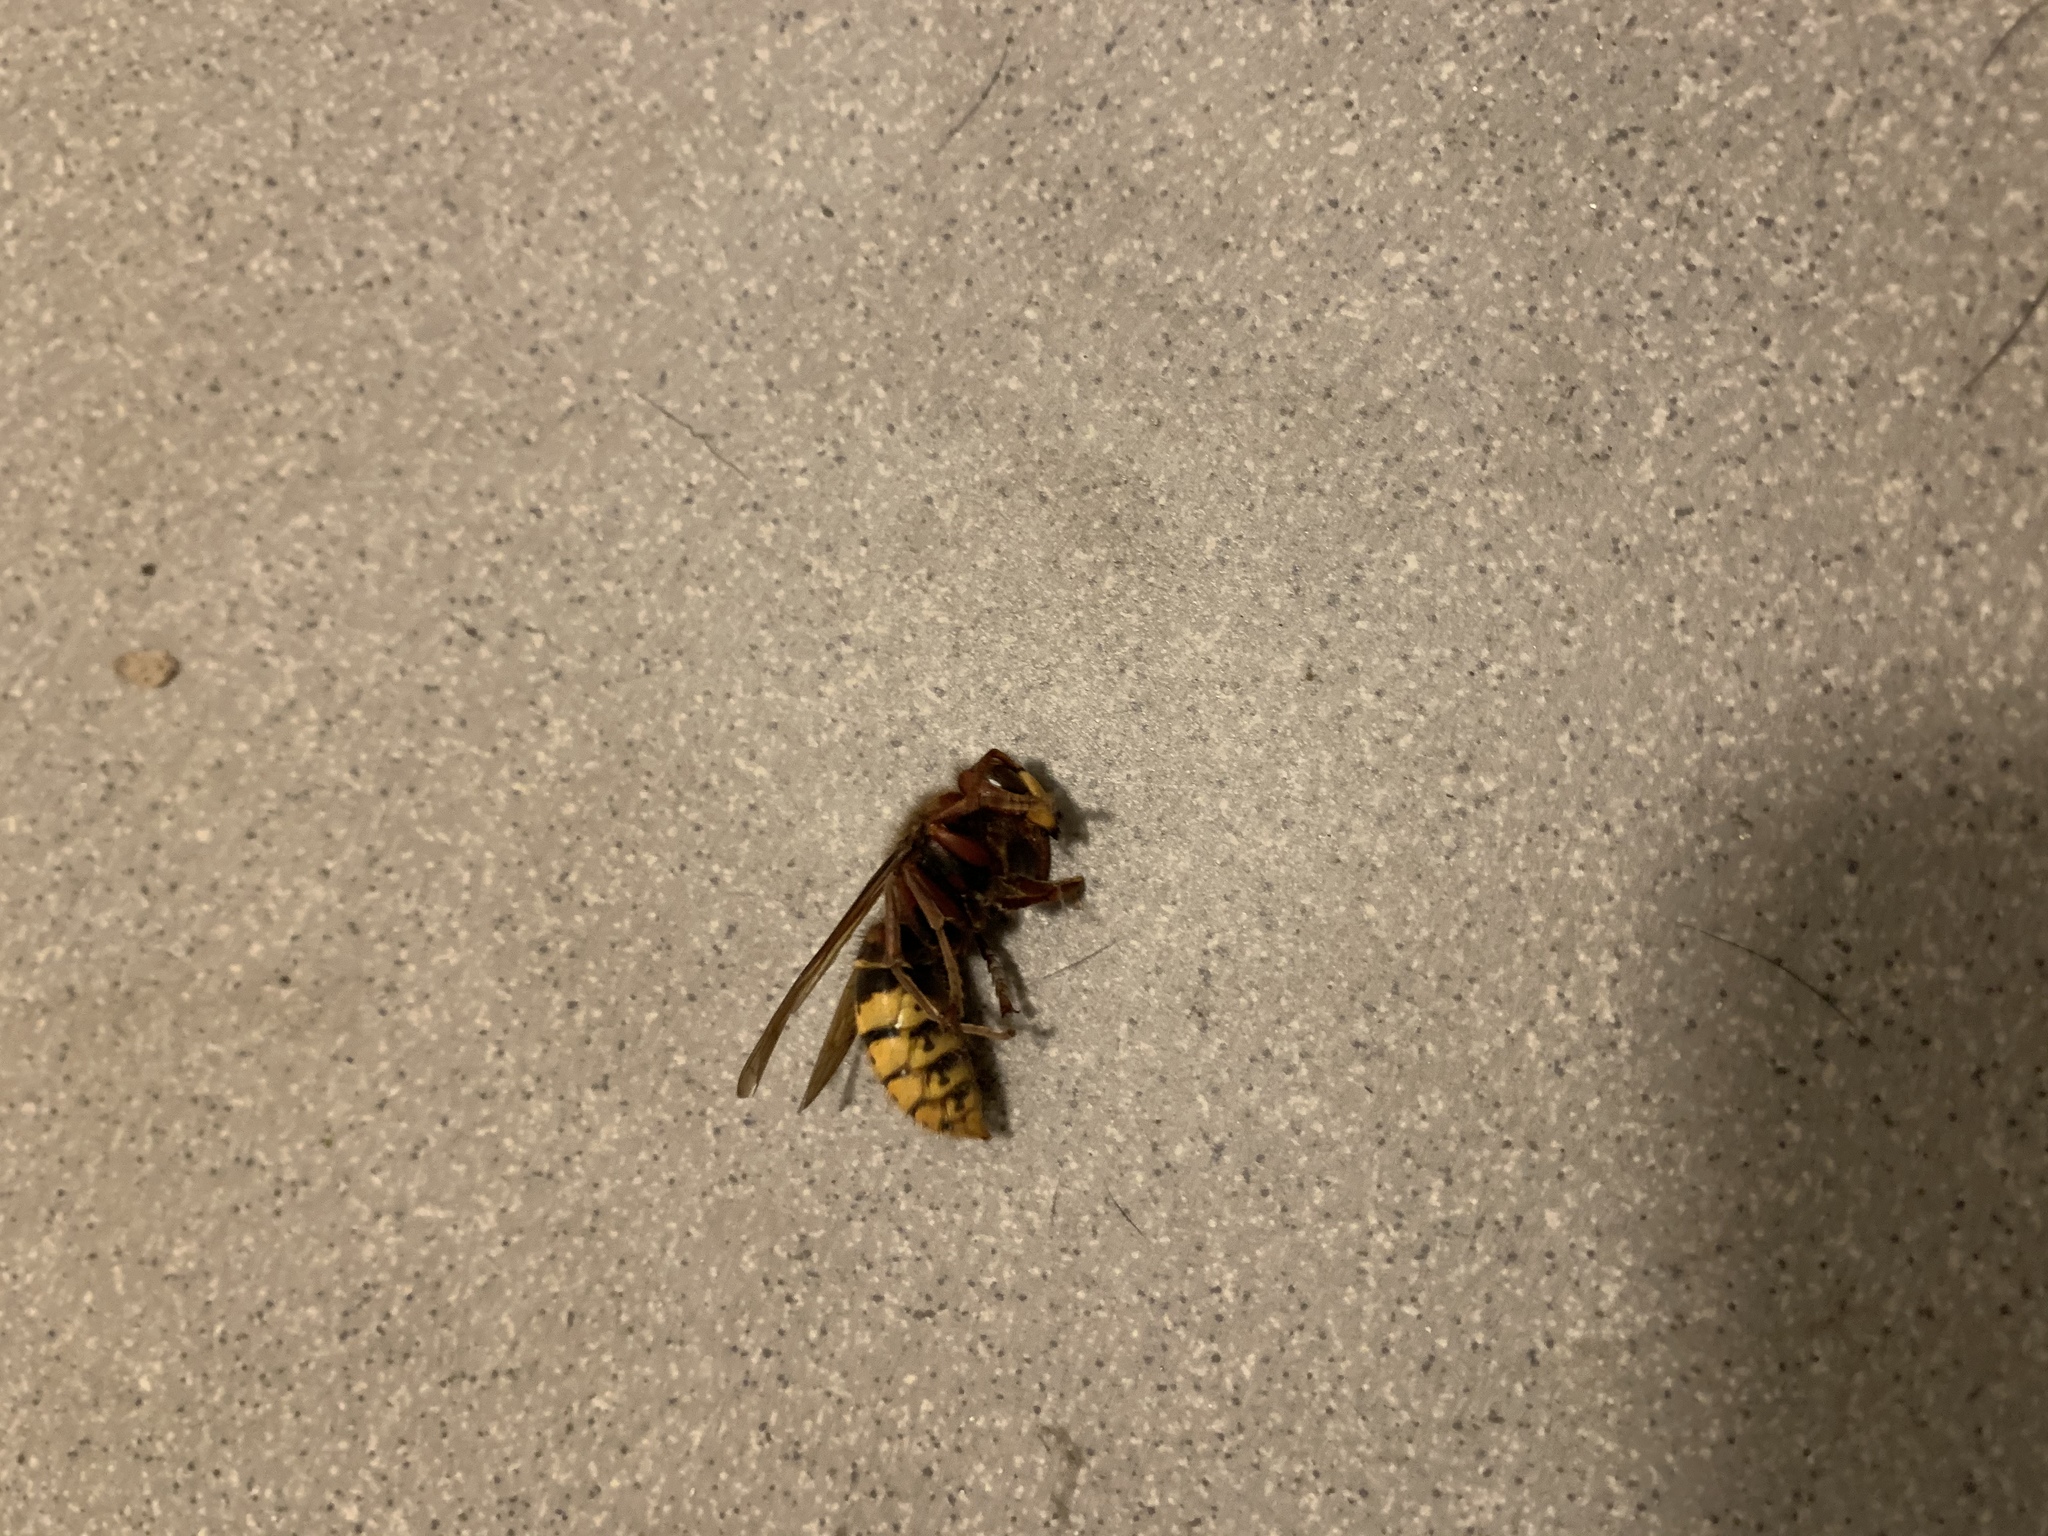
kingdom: Animalia
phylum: Arthropoda
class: Insecta
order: Hymenoptera
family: Vespidae
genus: Vespa
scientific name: Vespa crabro
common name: Hornet
